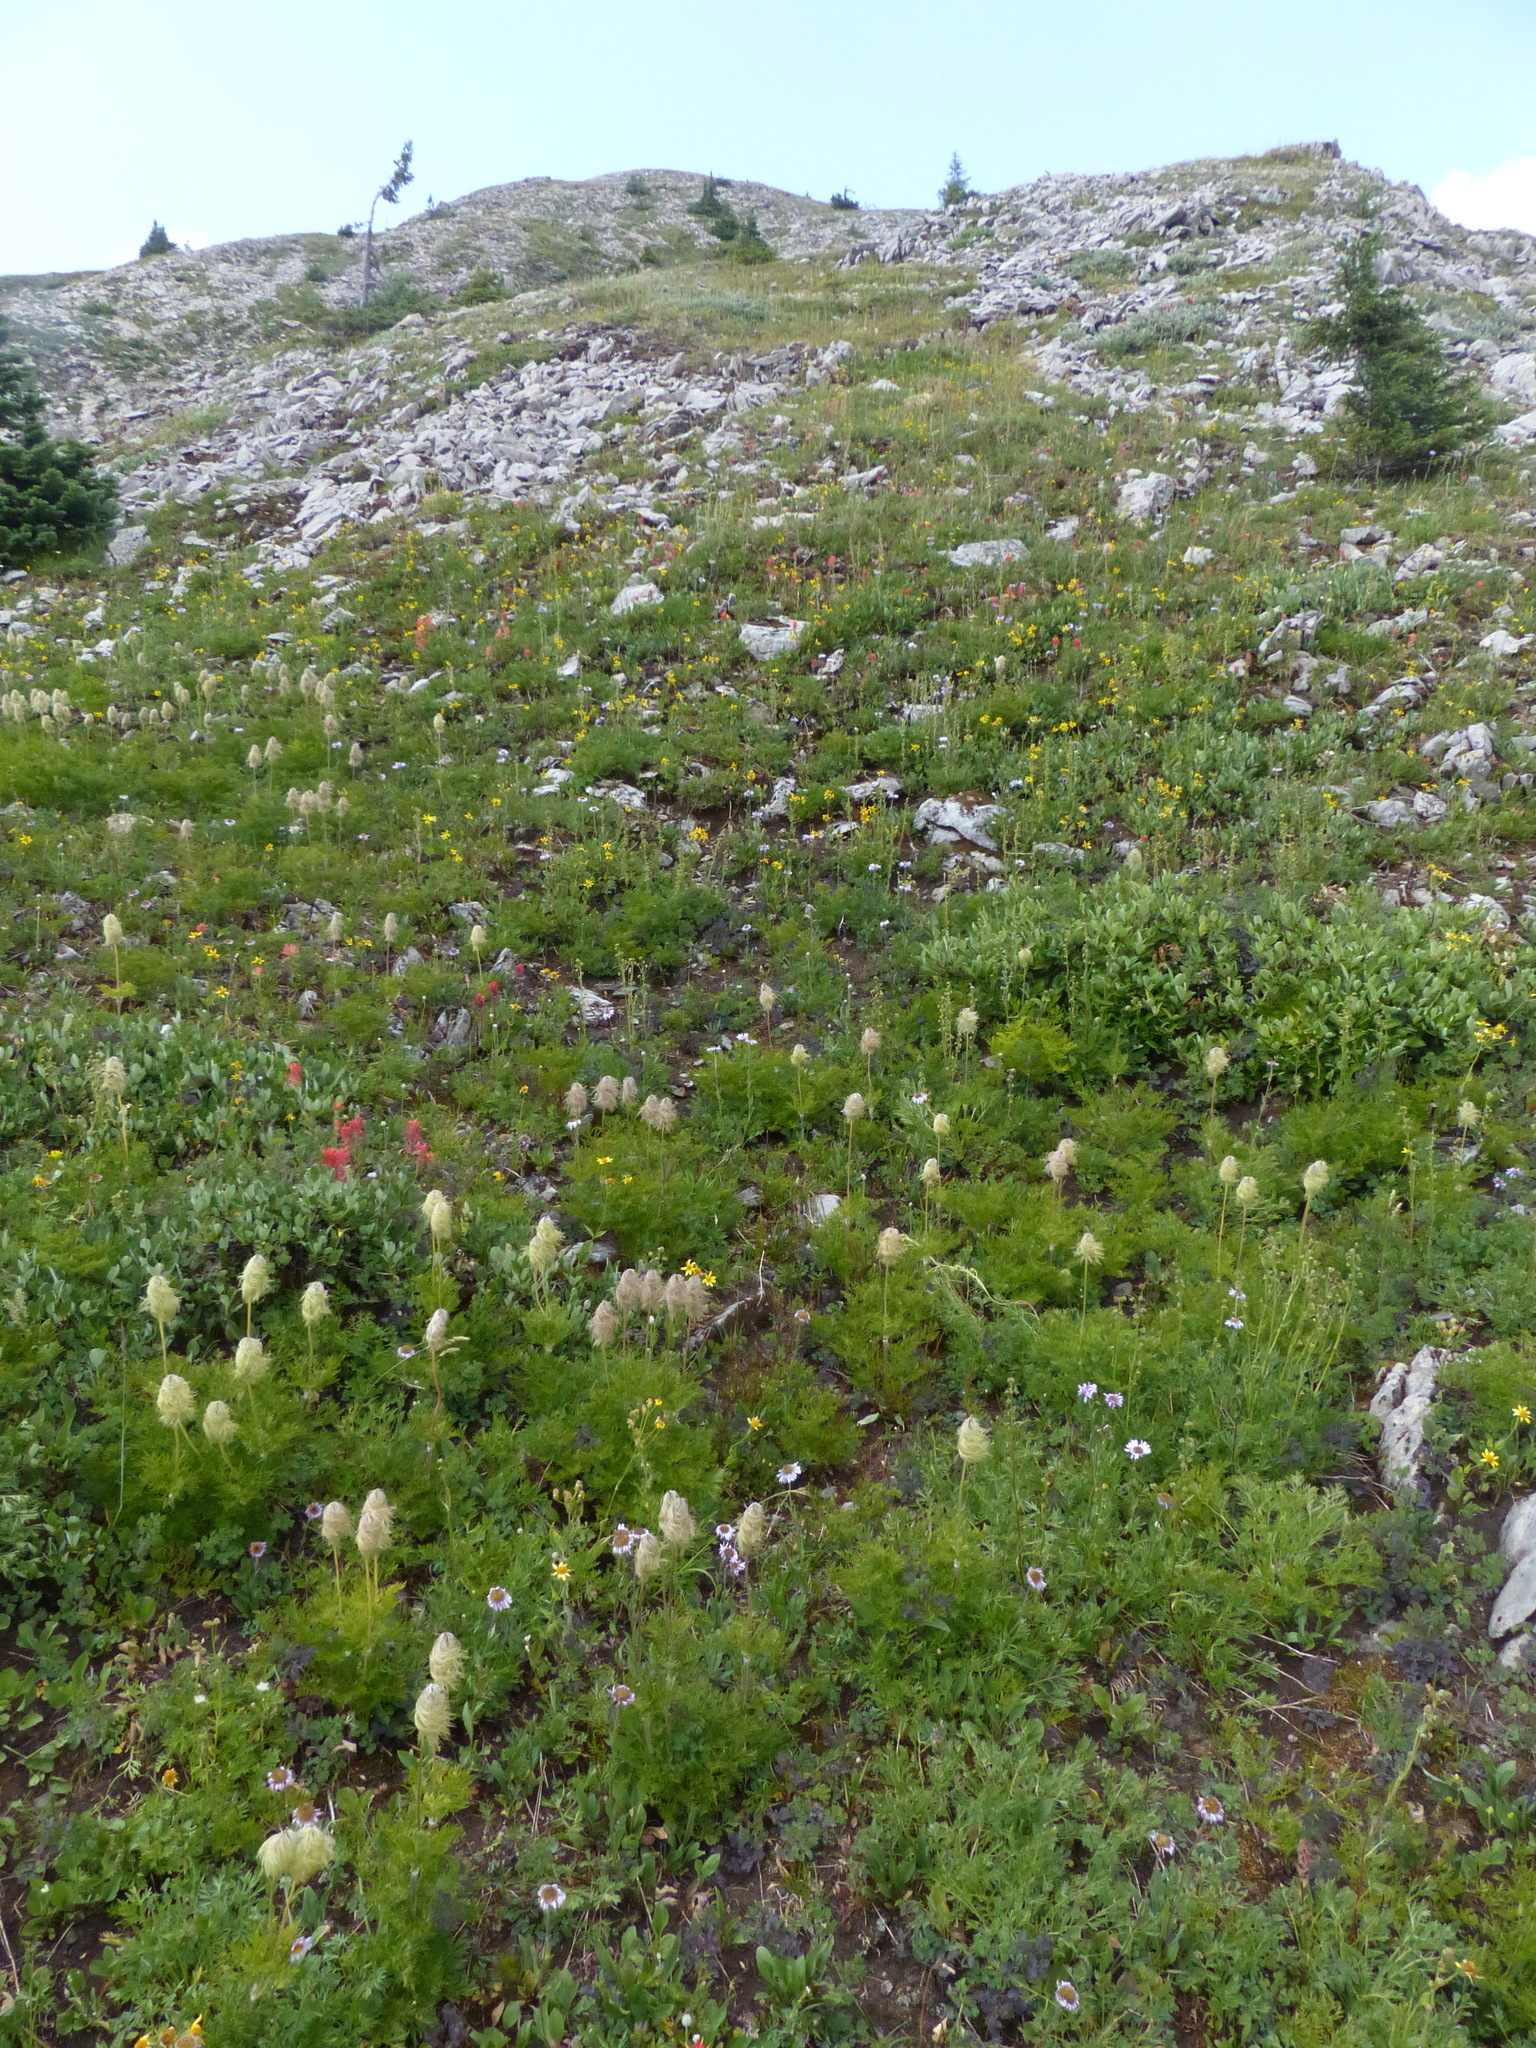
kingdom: Plantae
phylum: Tracheophyta
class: Magnoliopsida
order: Ranunculales
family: Ranunculaceae
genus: Pulsatilla
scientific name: Pulsatilla occidentalis
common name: Mountain pasqueflower
